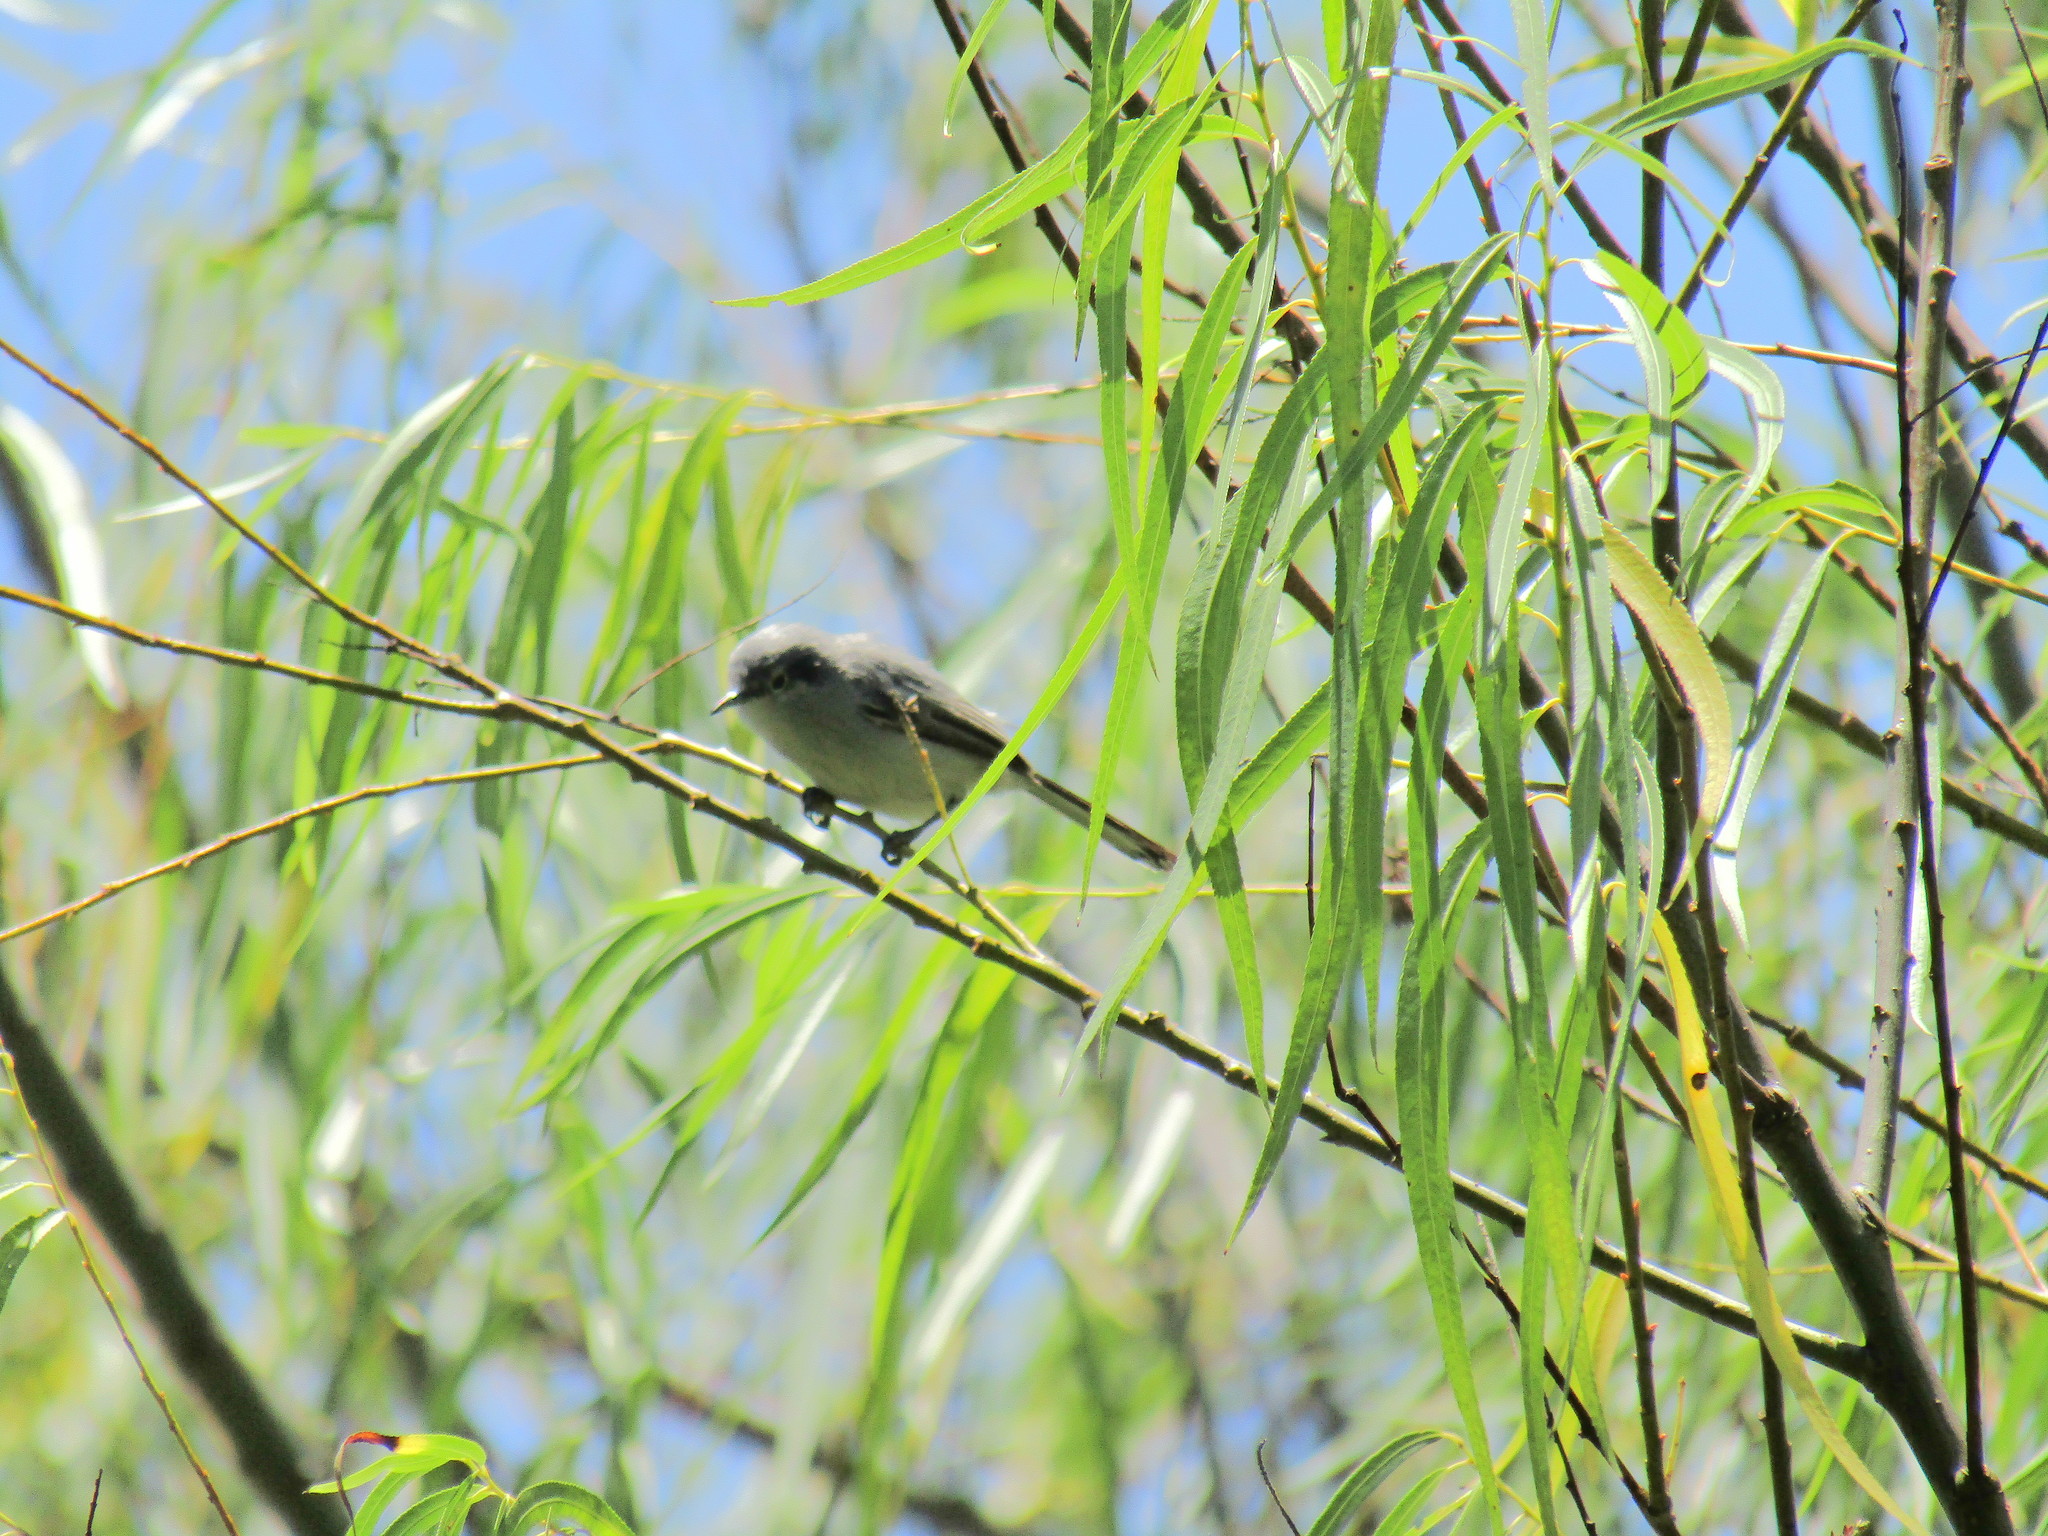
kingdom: Animalia
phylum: Chordata
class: Aves
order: Passeriformes
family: Polioptilidae
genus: Polioptila
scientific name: Polioptila dumicola
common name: Masked gnatcatcher
